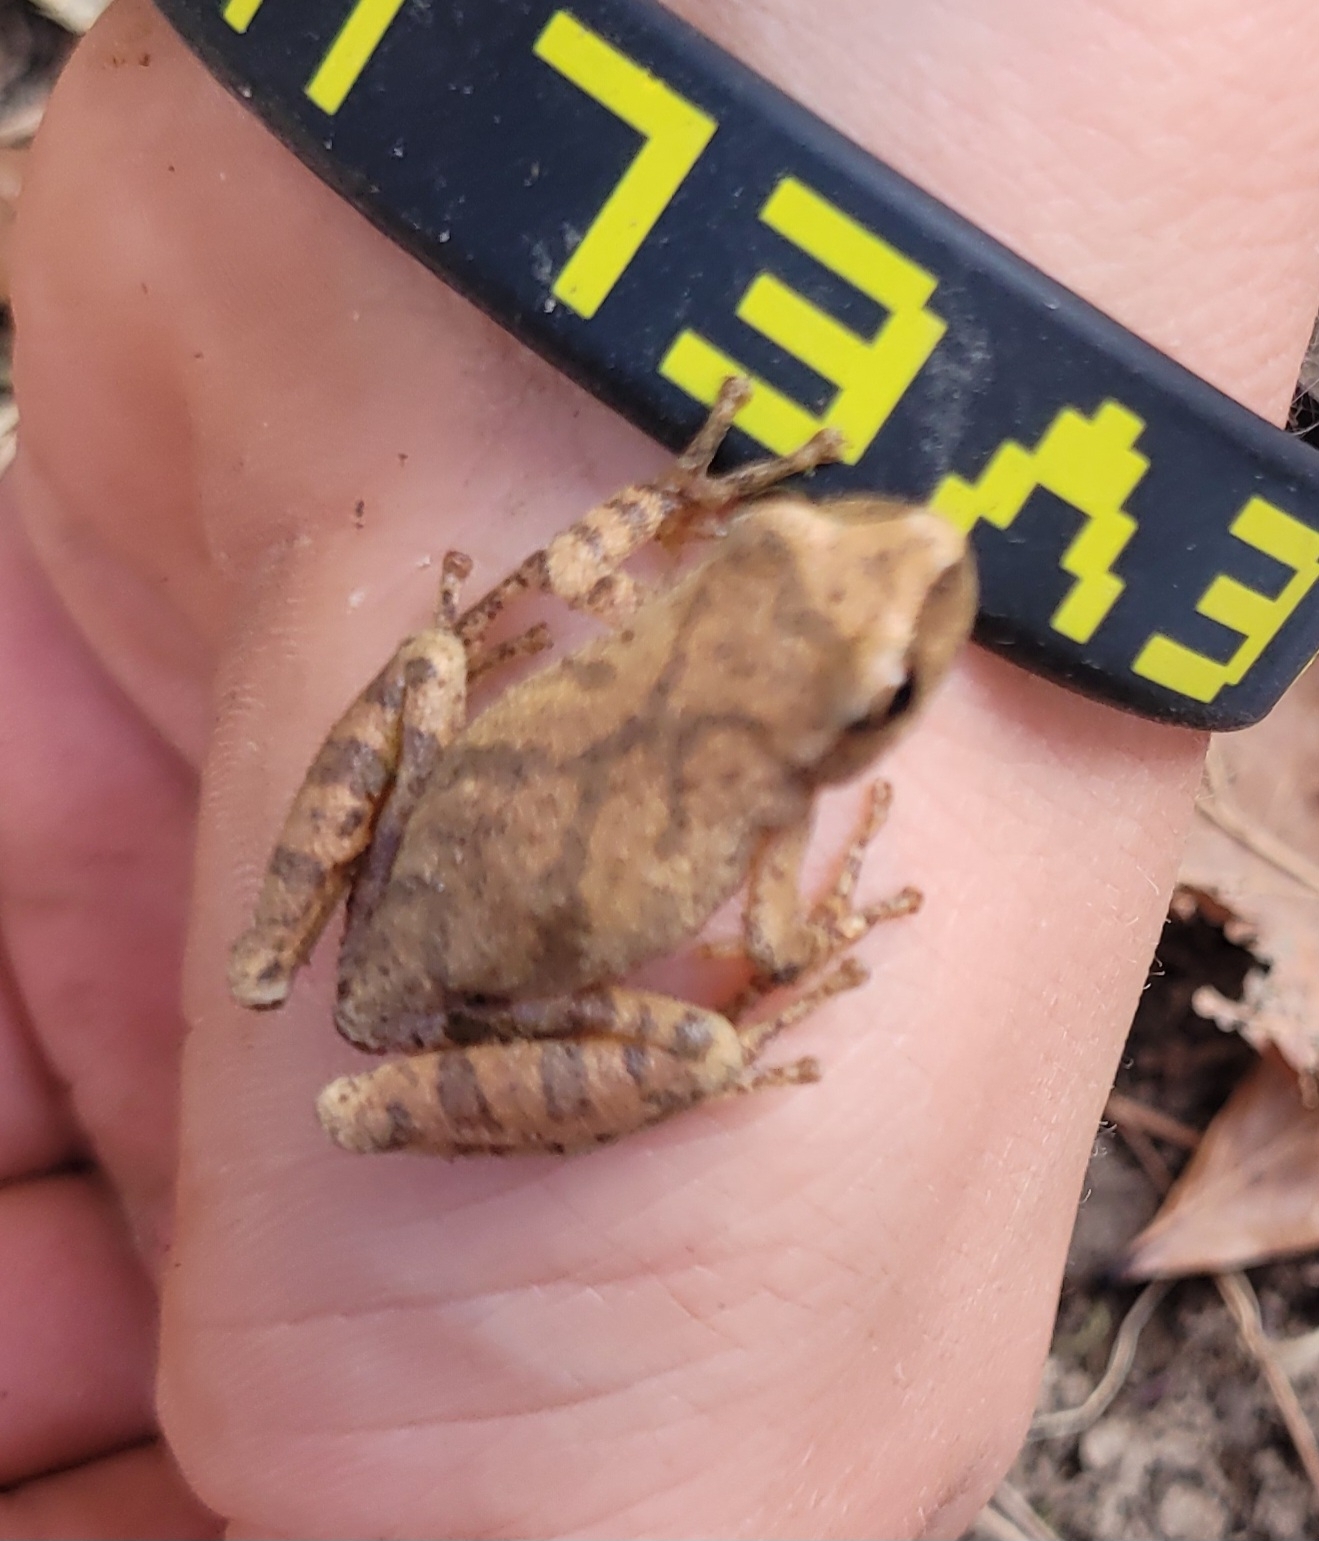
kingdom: Animalia
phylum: Chordata
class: Amphibia
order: Anura
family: Hylidae
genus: Pseudacris
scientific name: Pseudacris crucifer
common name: Spring peeper
